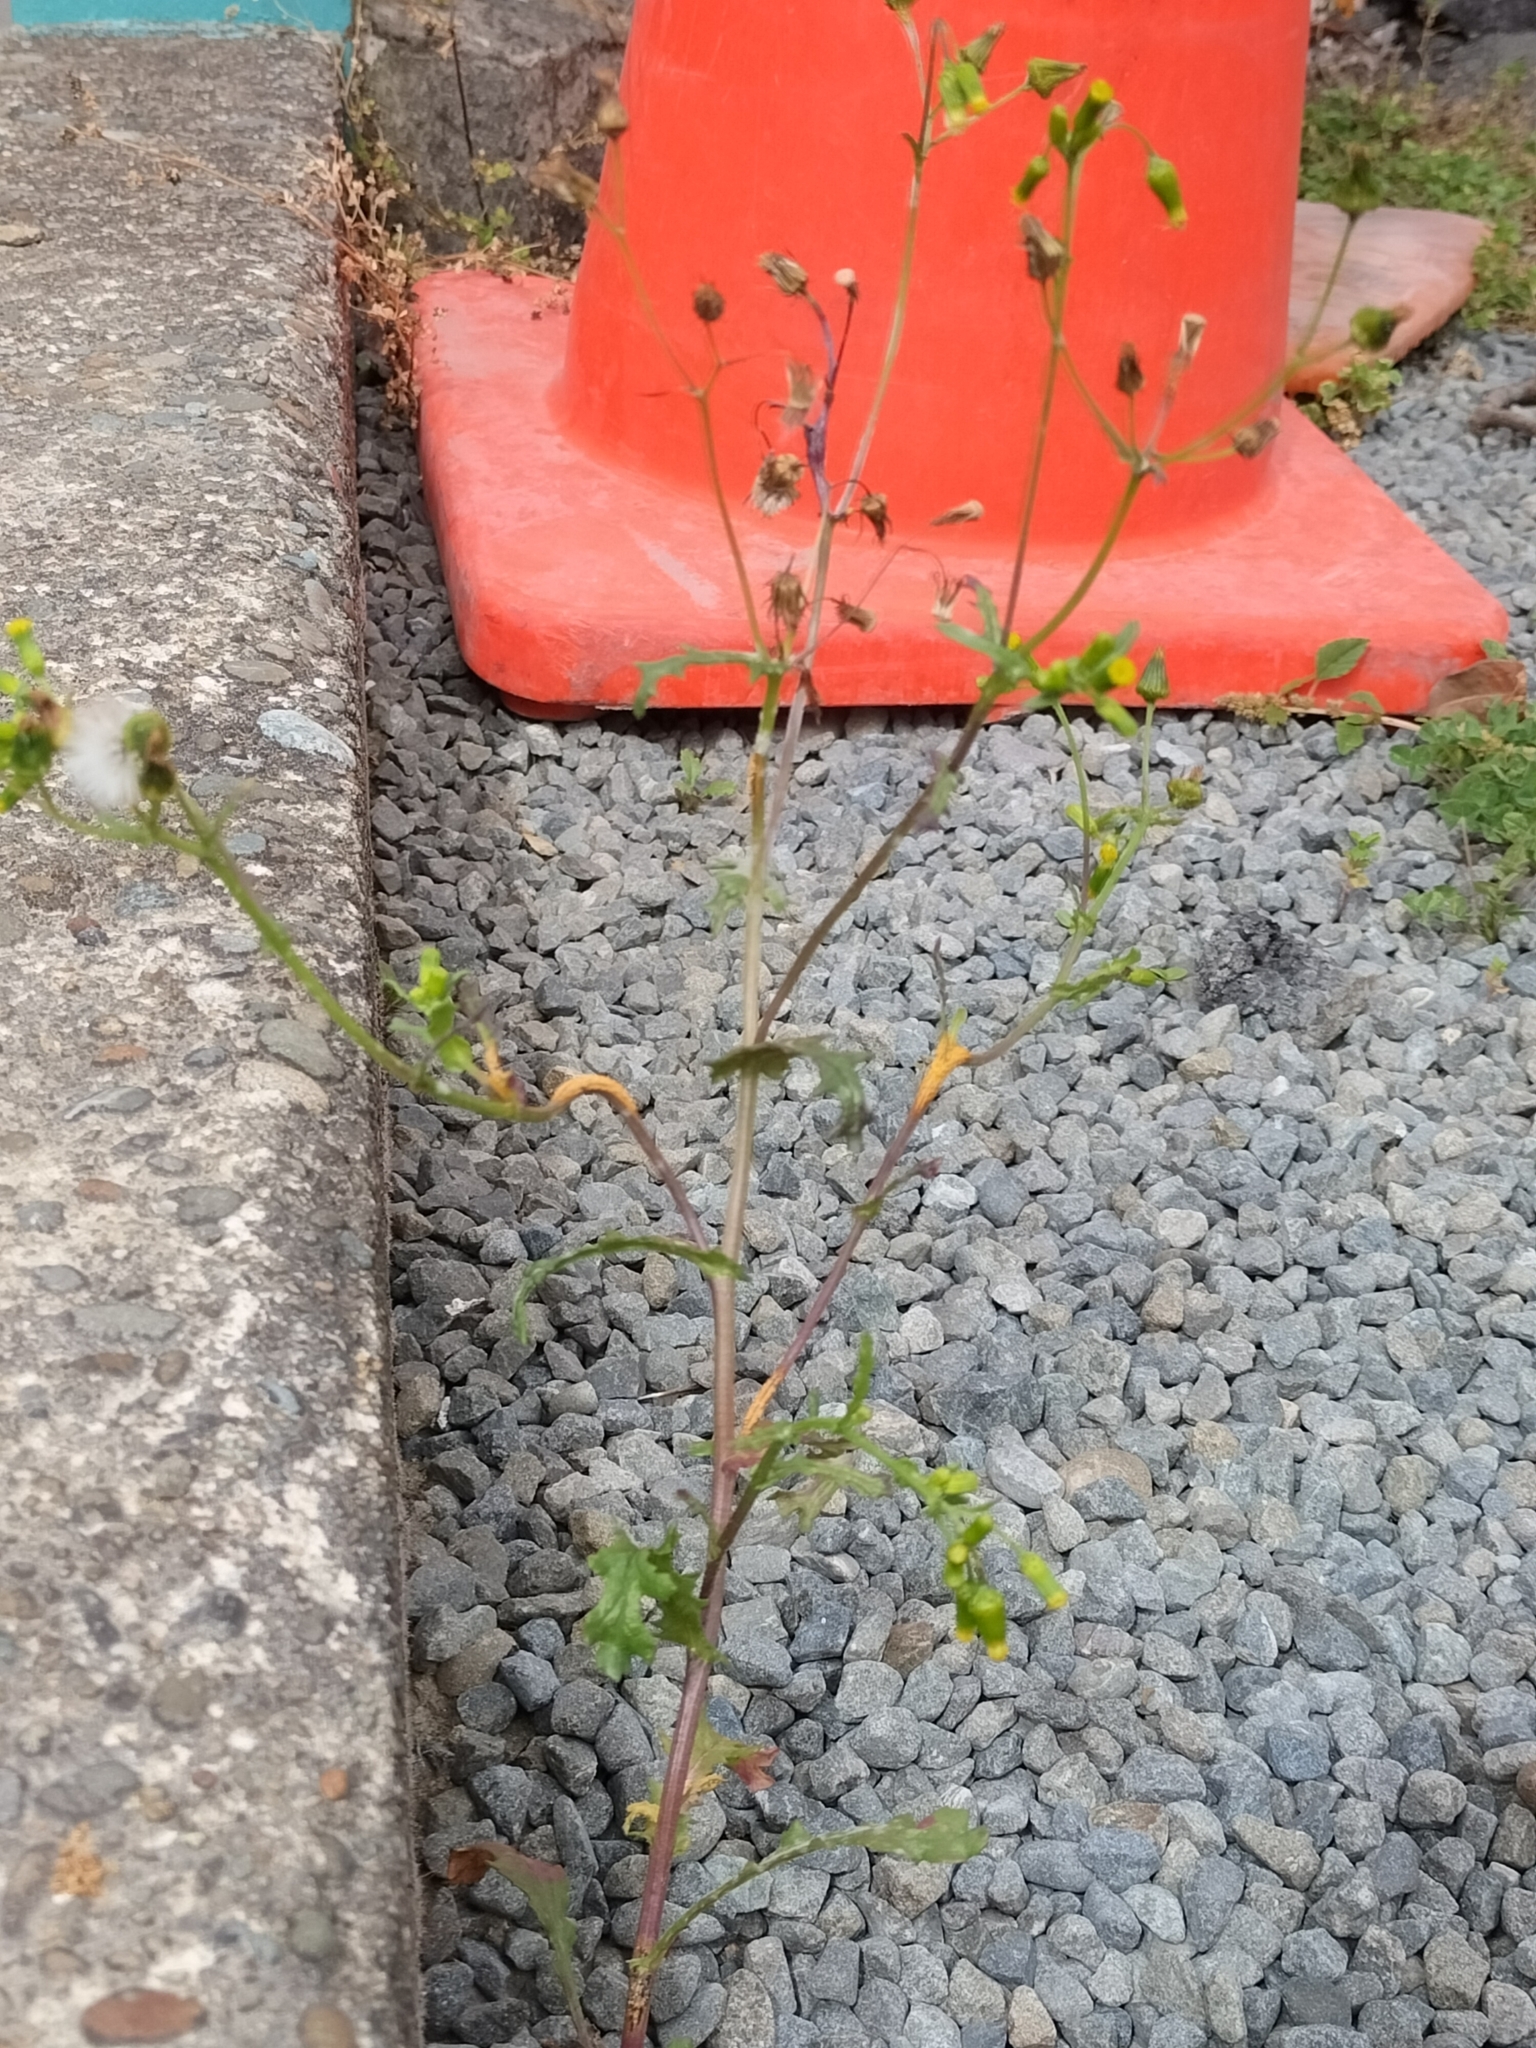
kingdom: Plantae
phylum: Tracheophyta
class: Magnoliopsida
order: Asterales
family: Asteraceae
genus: Senecio
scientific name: Senecio vulgaris
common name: Old-man-in-the-spring
